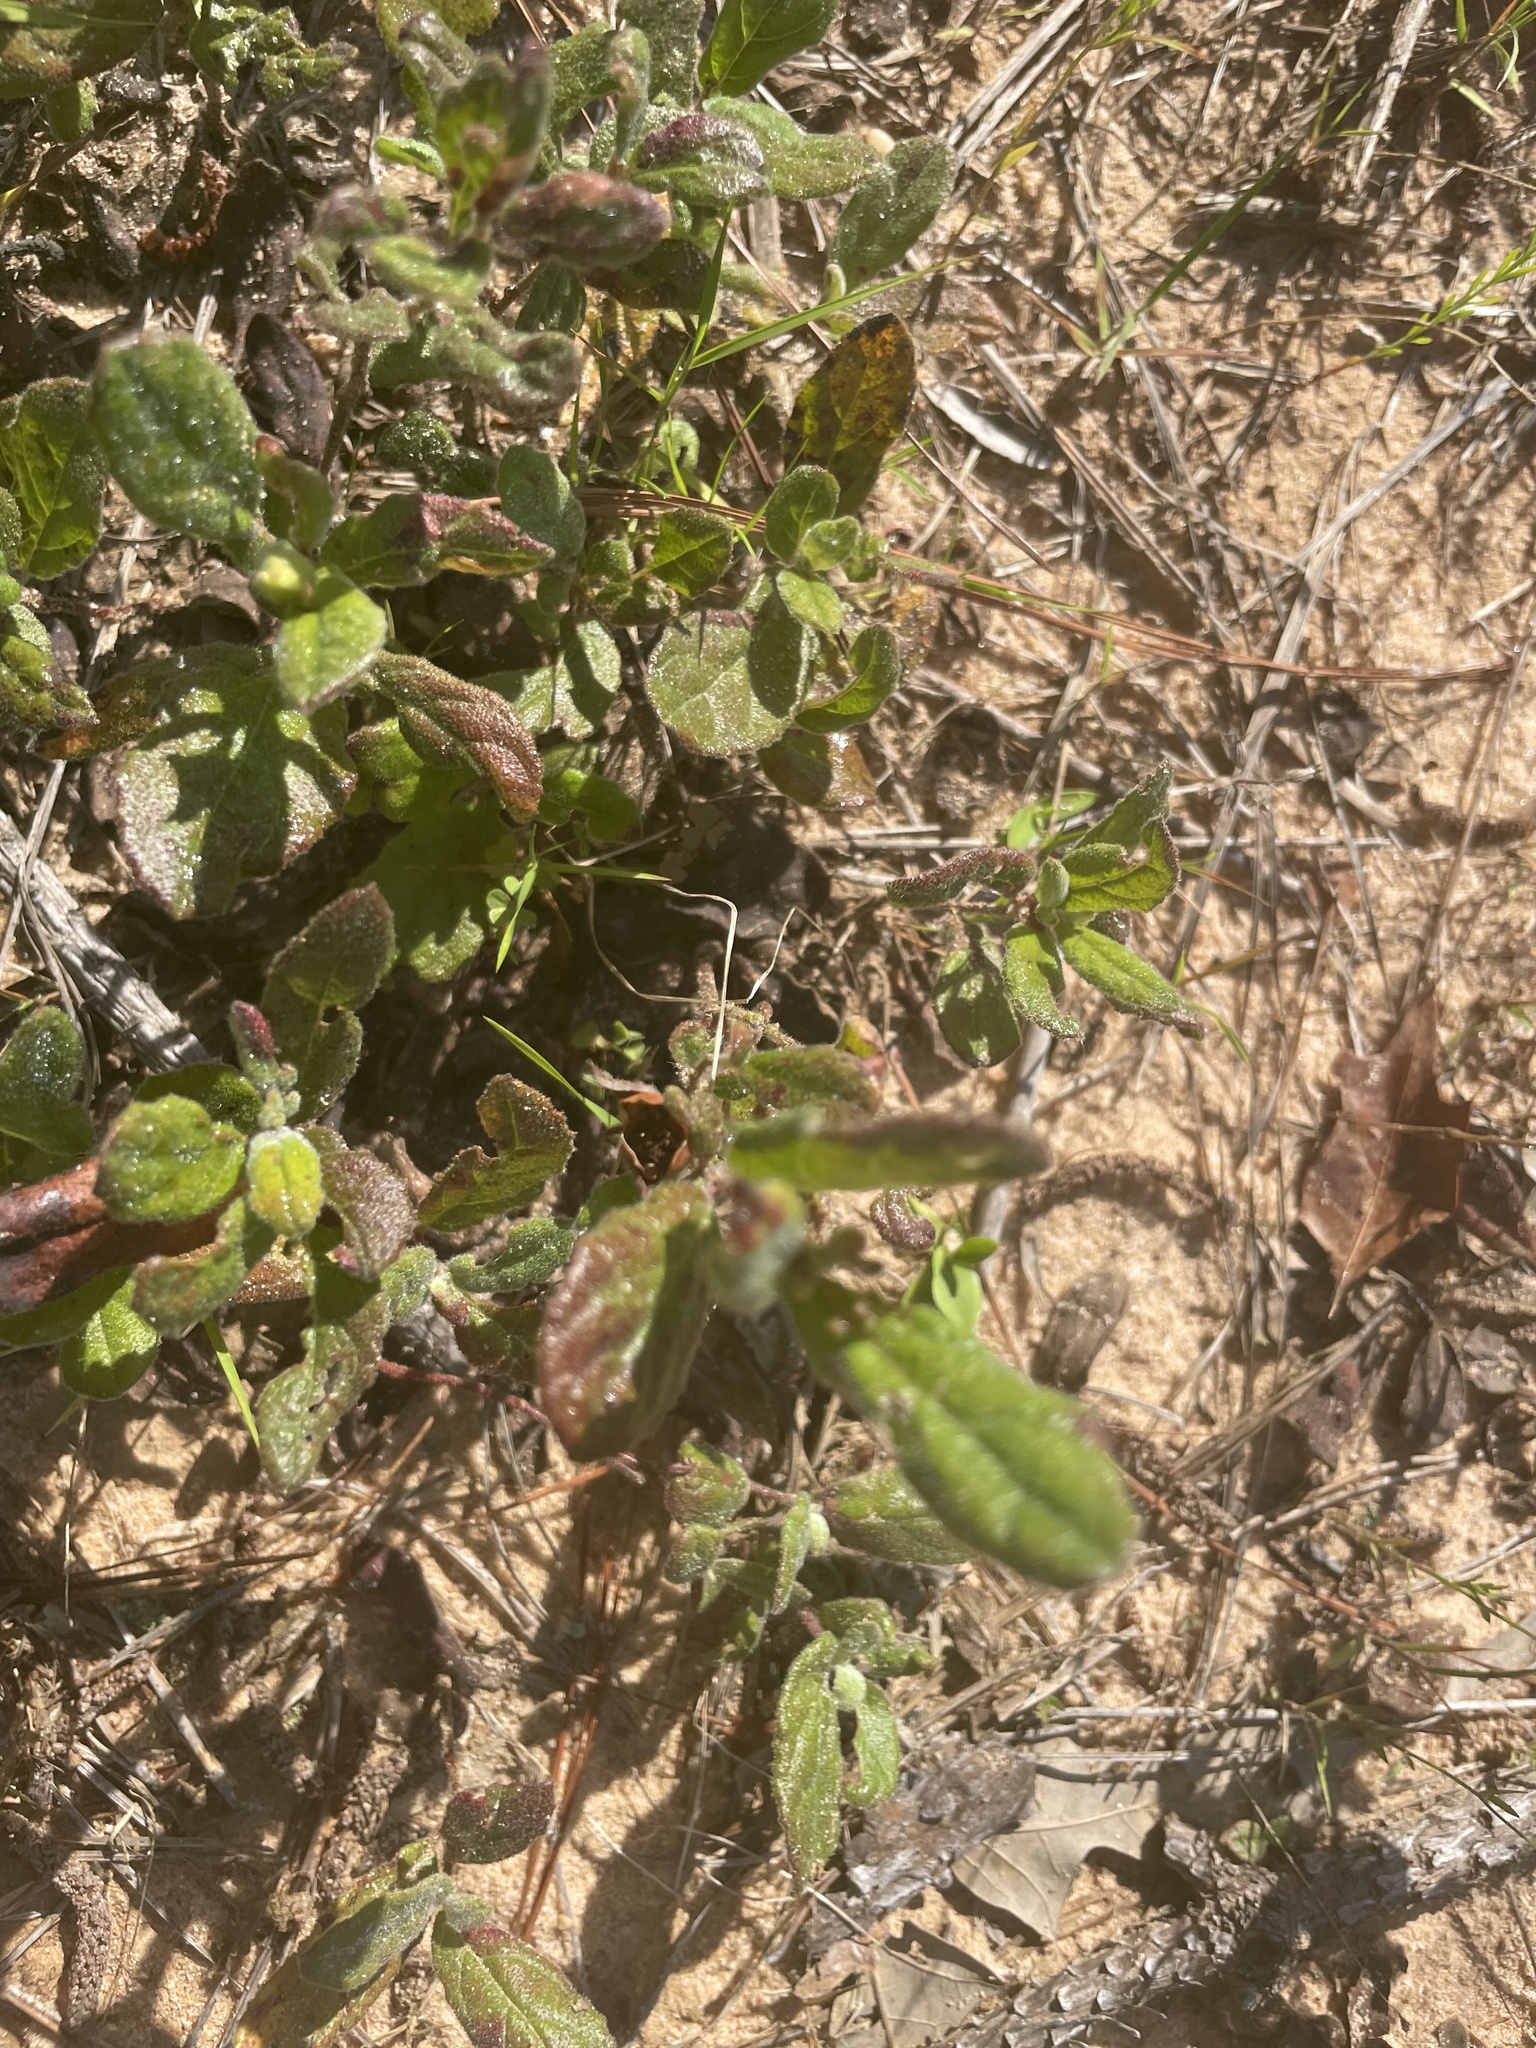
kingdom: Plantae
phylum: Tracheophyta
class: Magnoliopsida
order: Malvales
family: Cistaceae
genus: Crocanthemum
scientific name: Crocanthemum carolinianum
